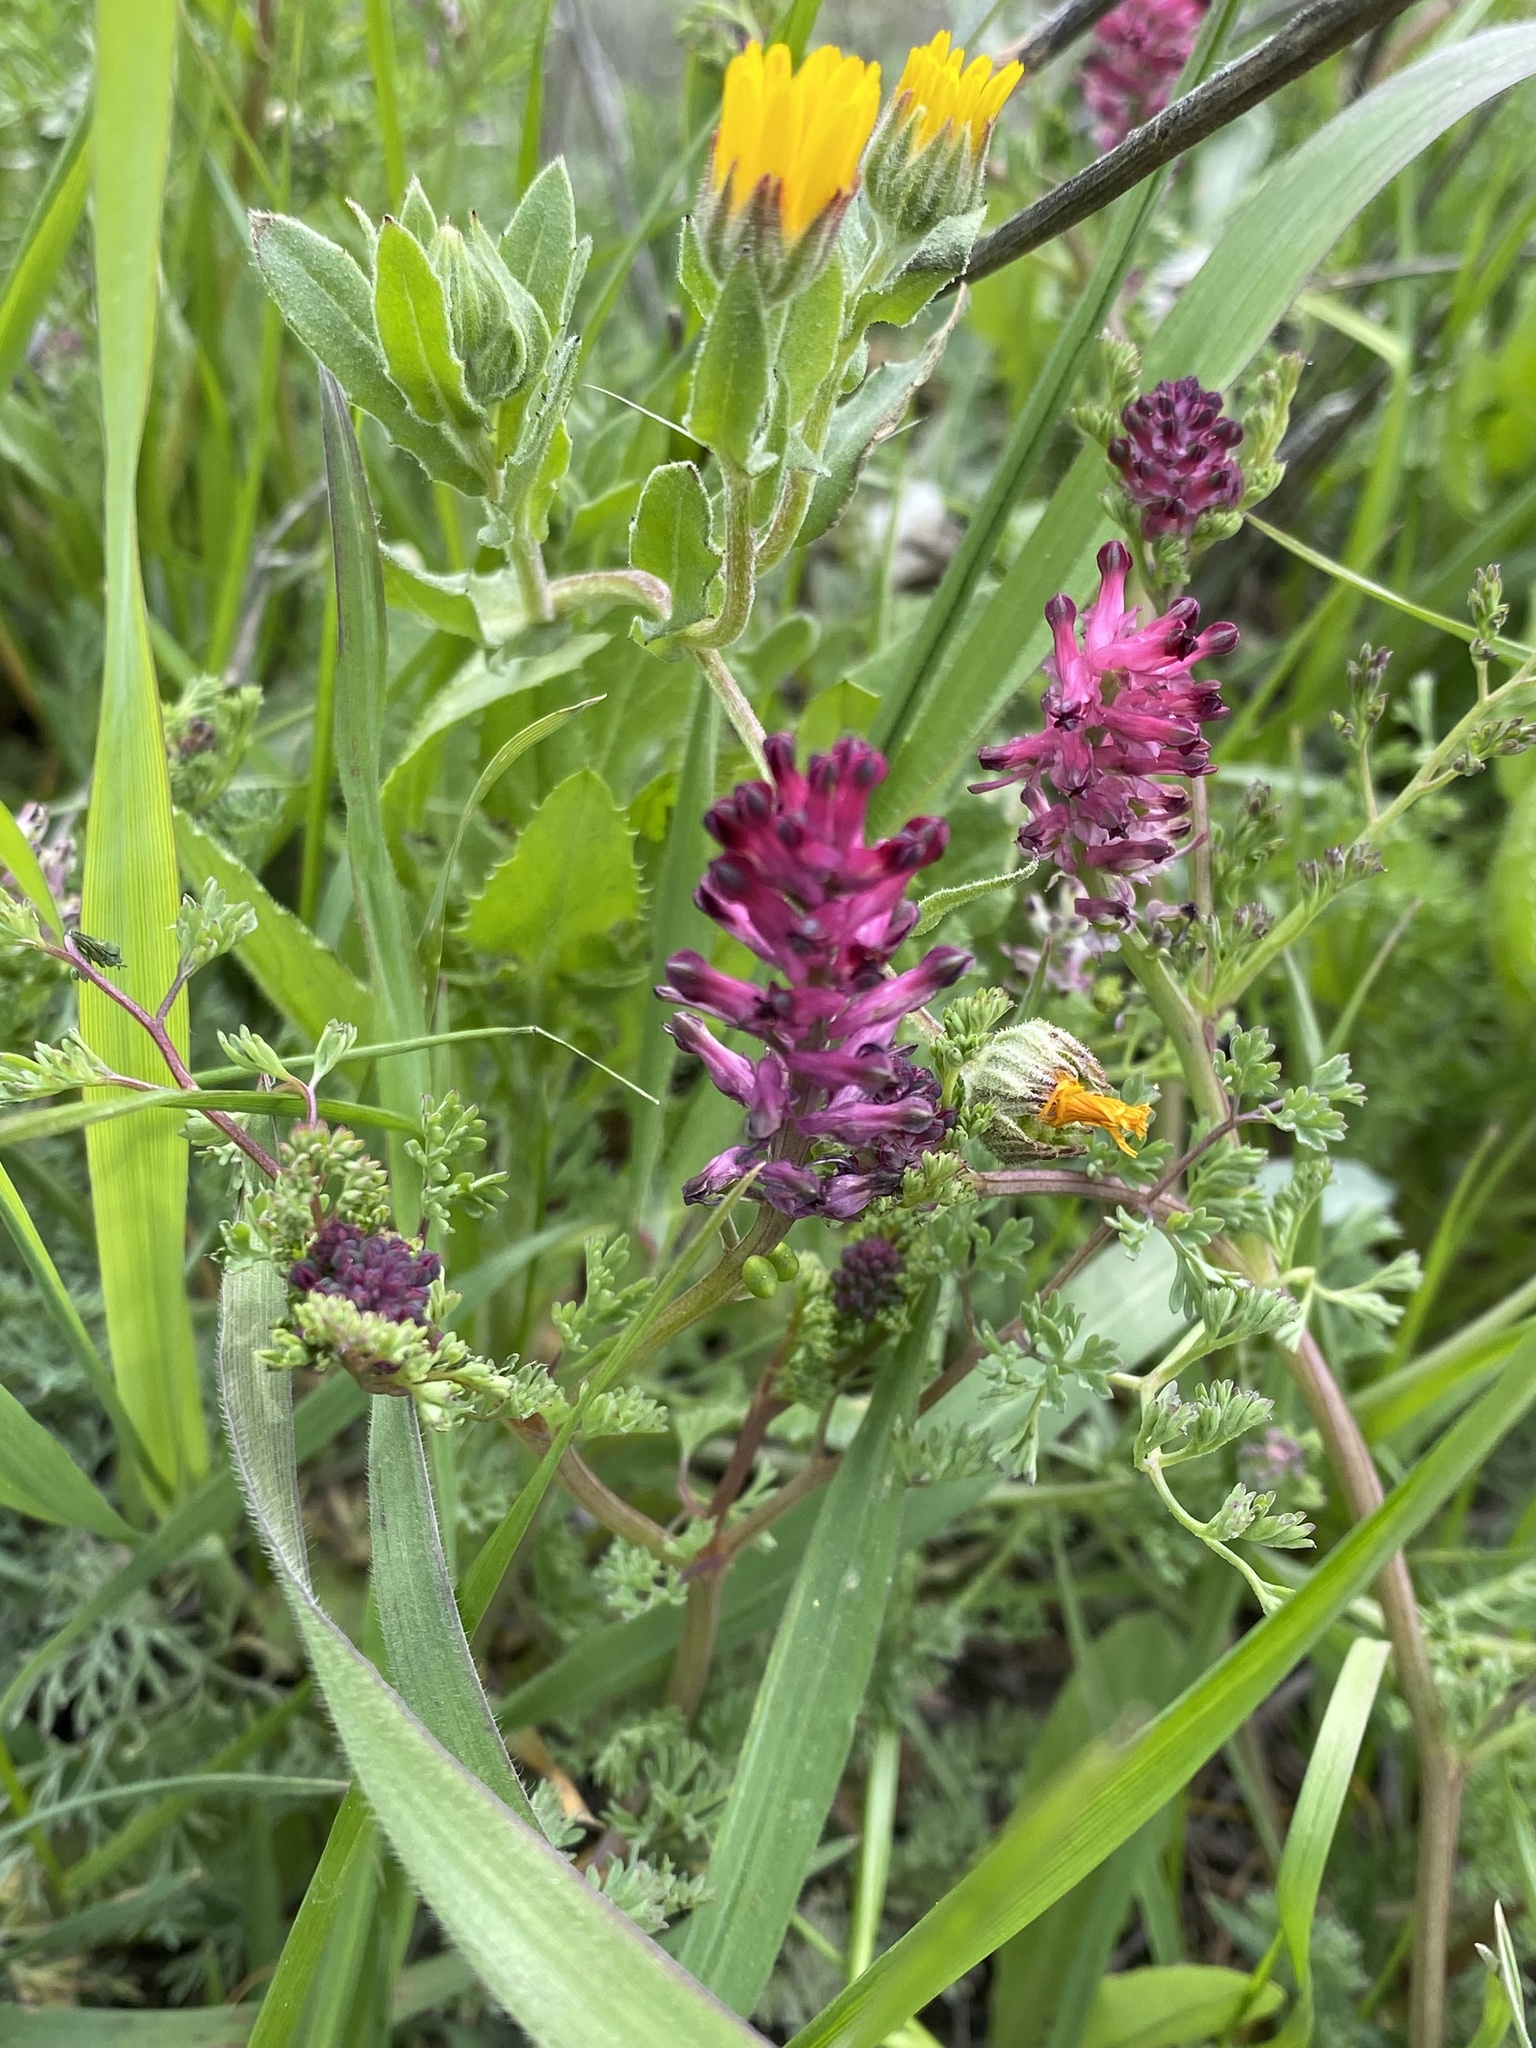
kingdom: Plantae
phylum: Tracheophyta
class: Magnoliopsida
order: Ranunculales
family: Papaveraceae
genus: Fumaria
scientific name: Fumaria officinalis
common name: Common fumitory
